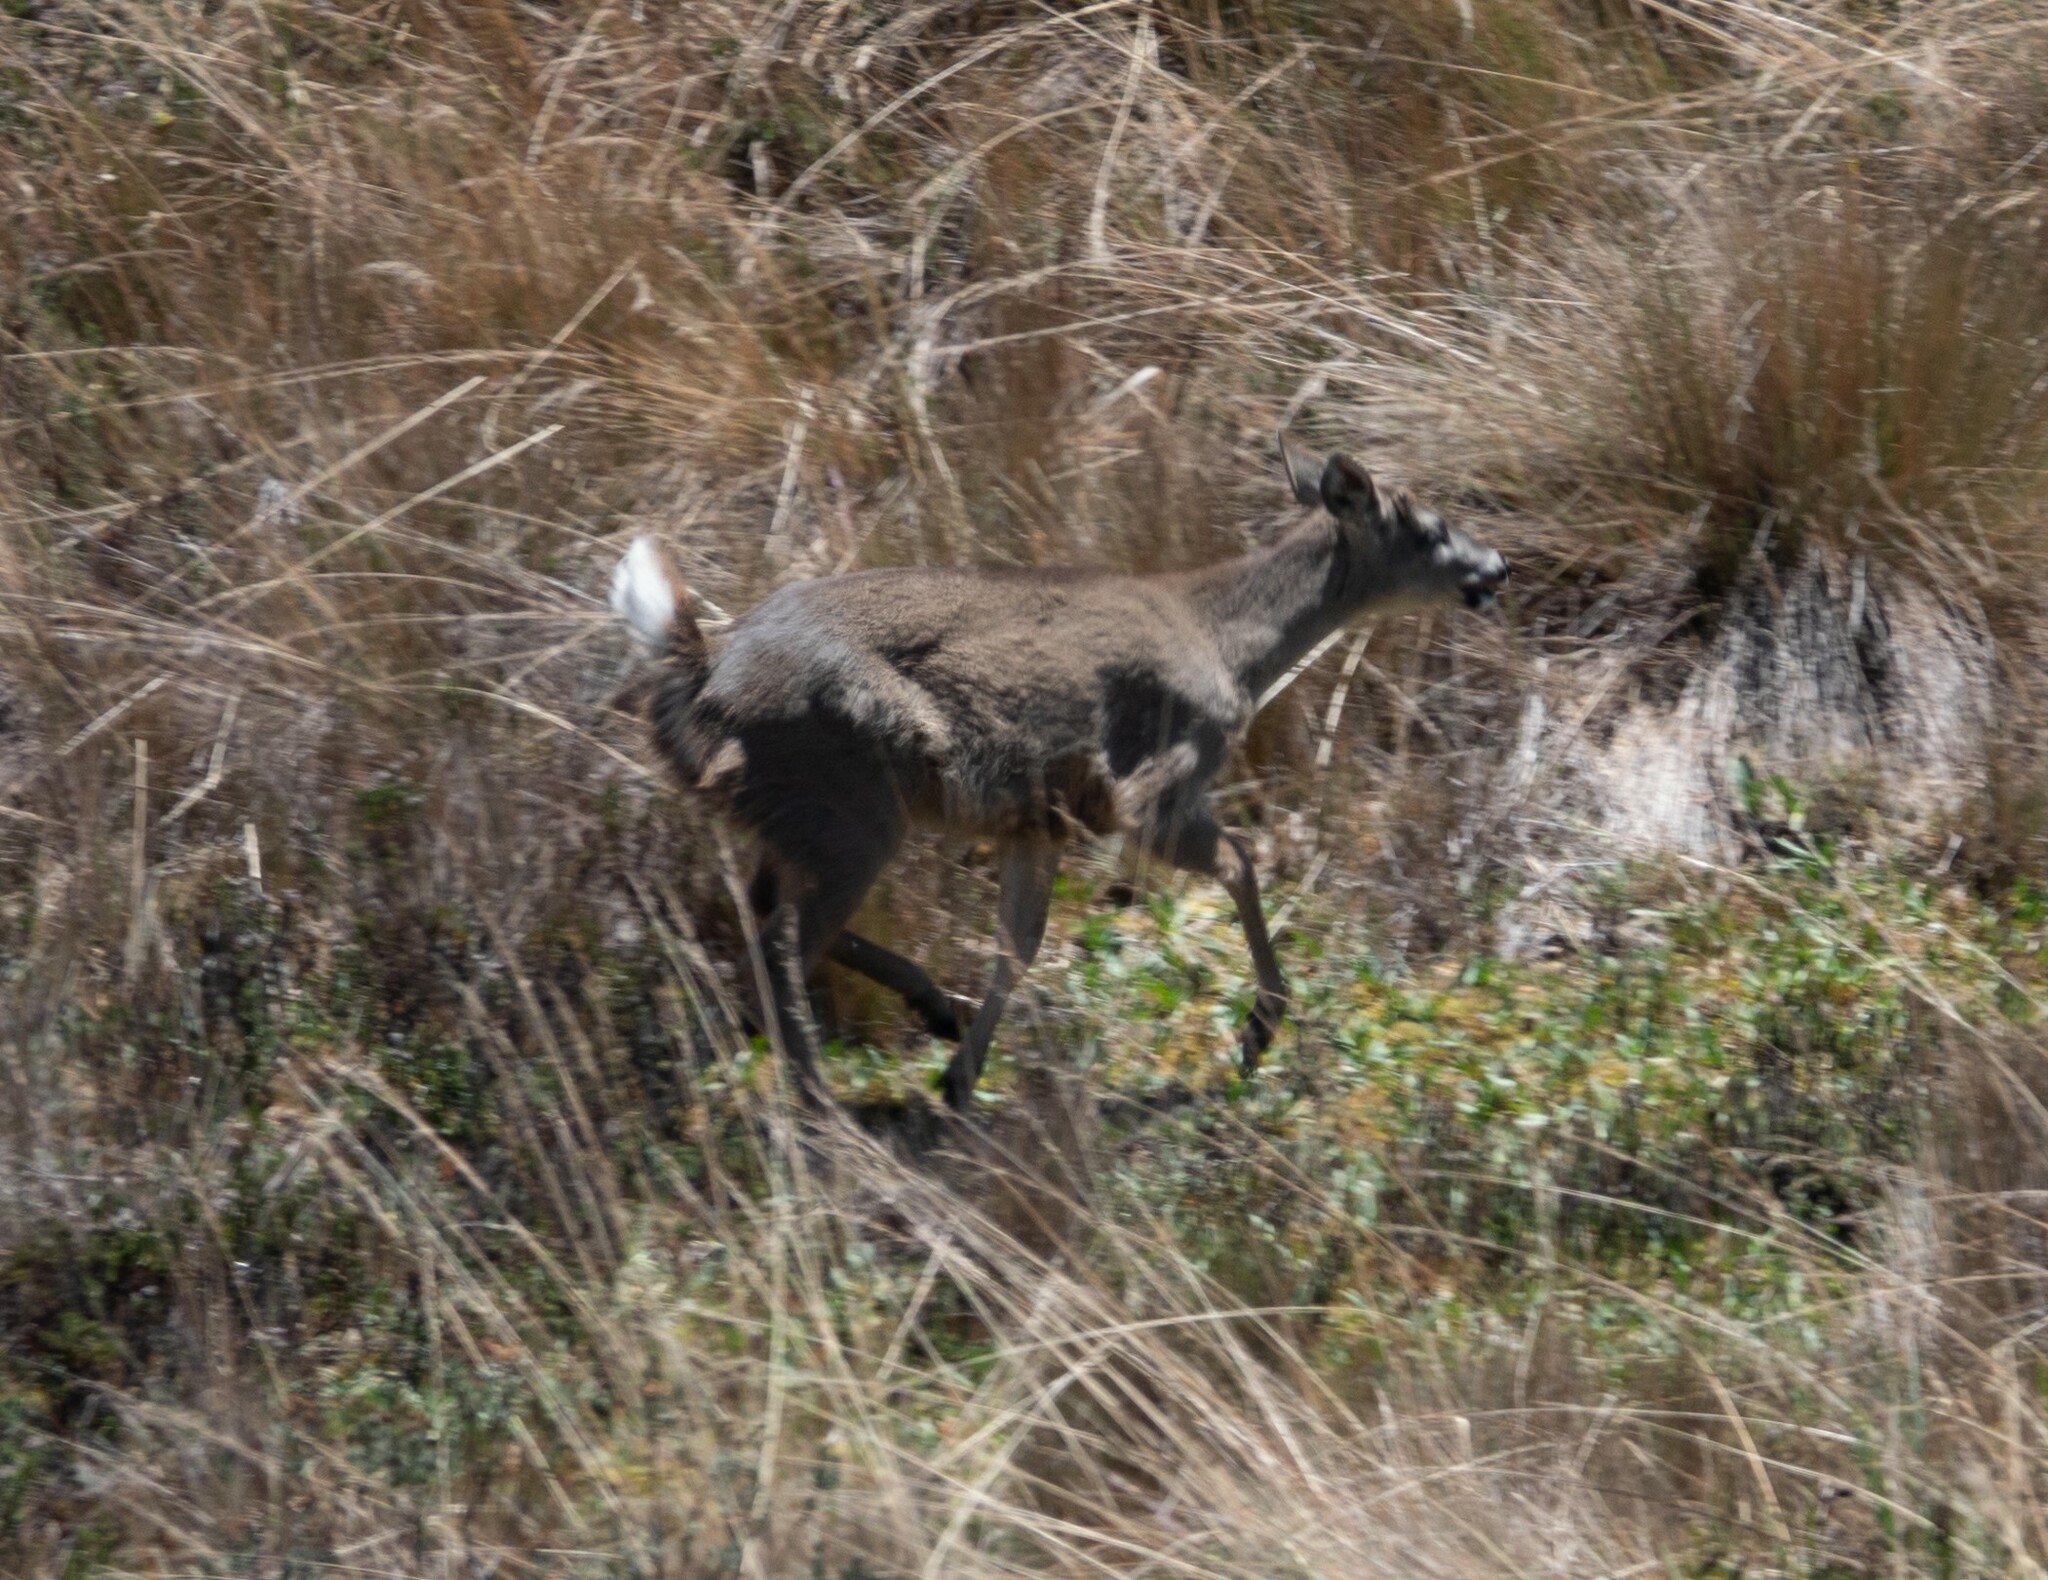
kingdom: Animalia
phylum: Chordata
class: Mammalia
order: Artiodactyla
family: Cervidae
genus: Odocoileus
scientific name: Odocoileus virginianus
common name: White-tailed deer
